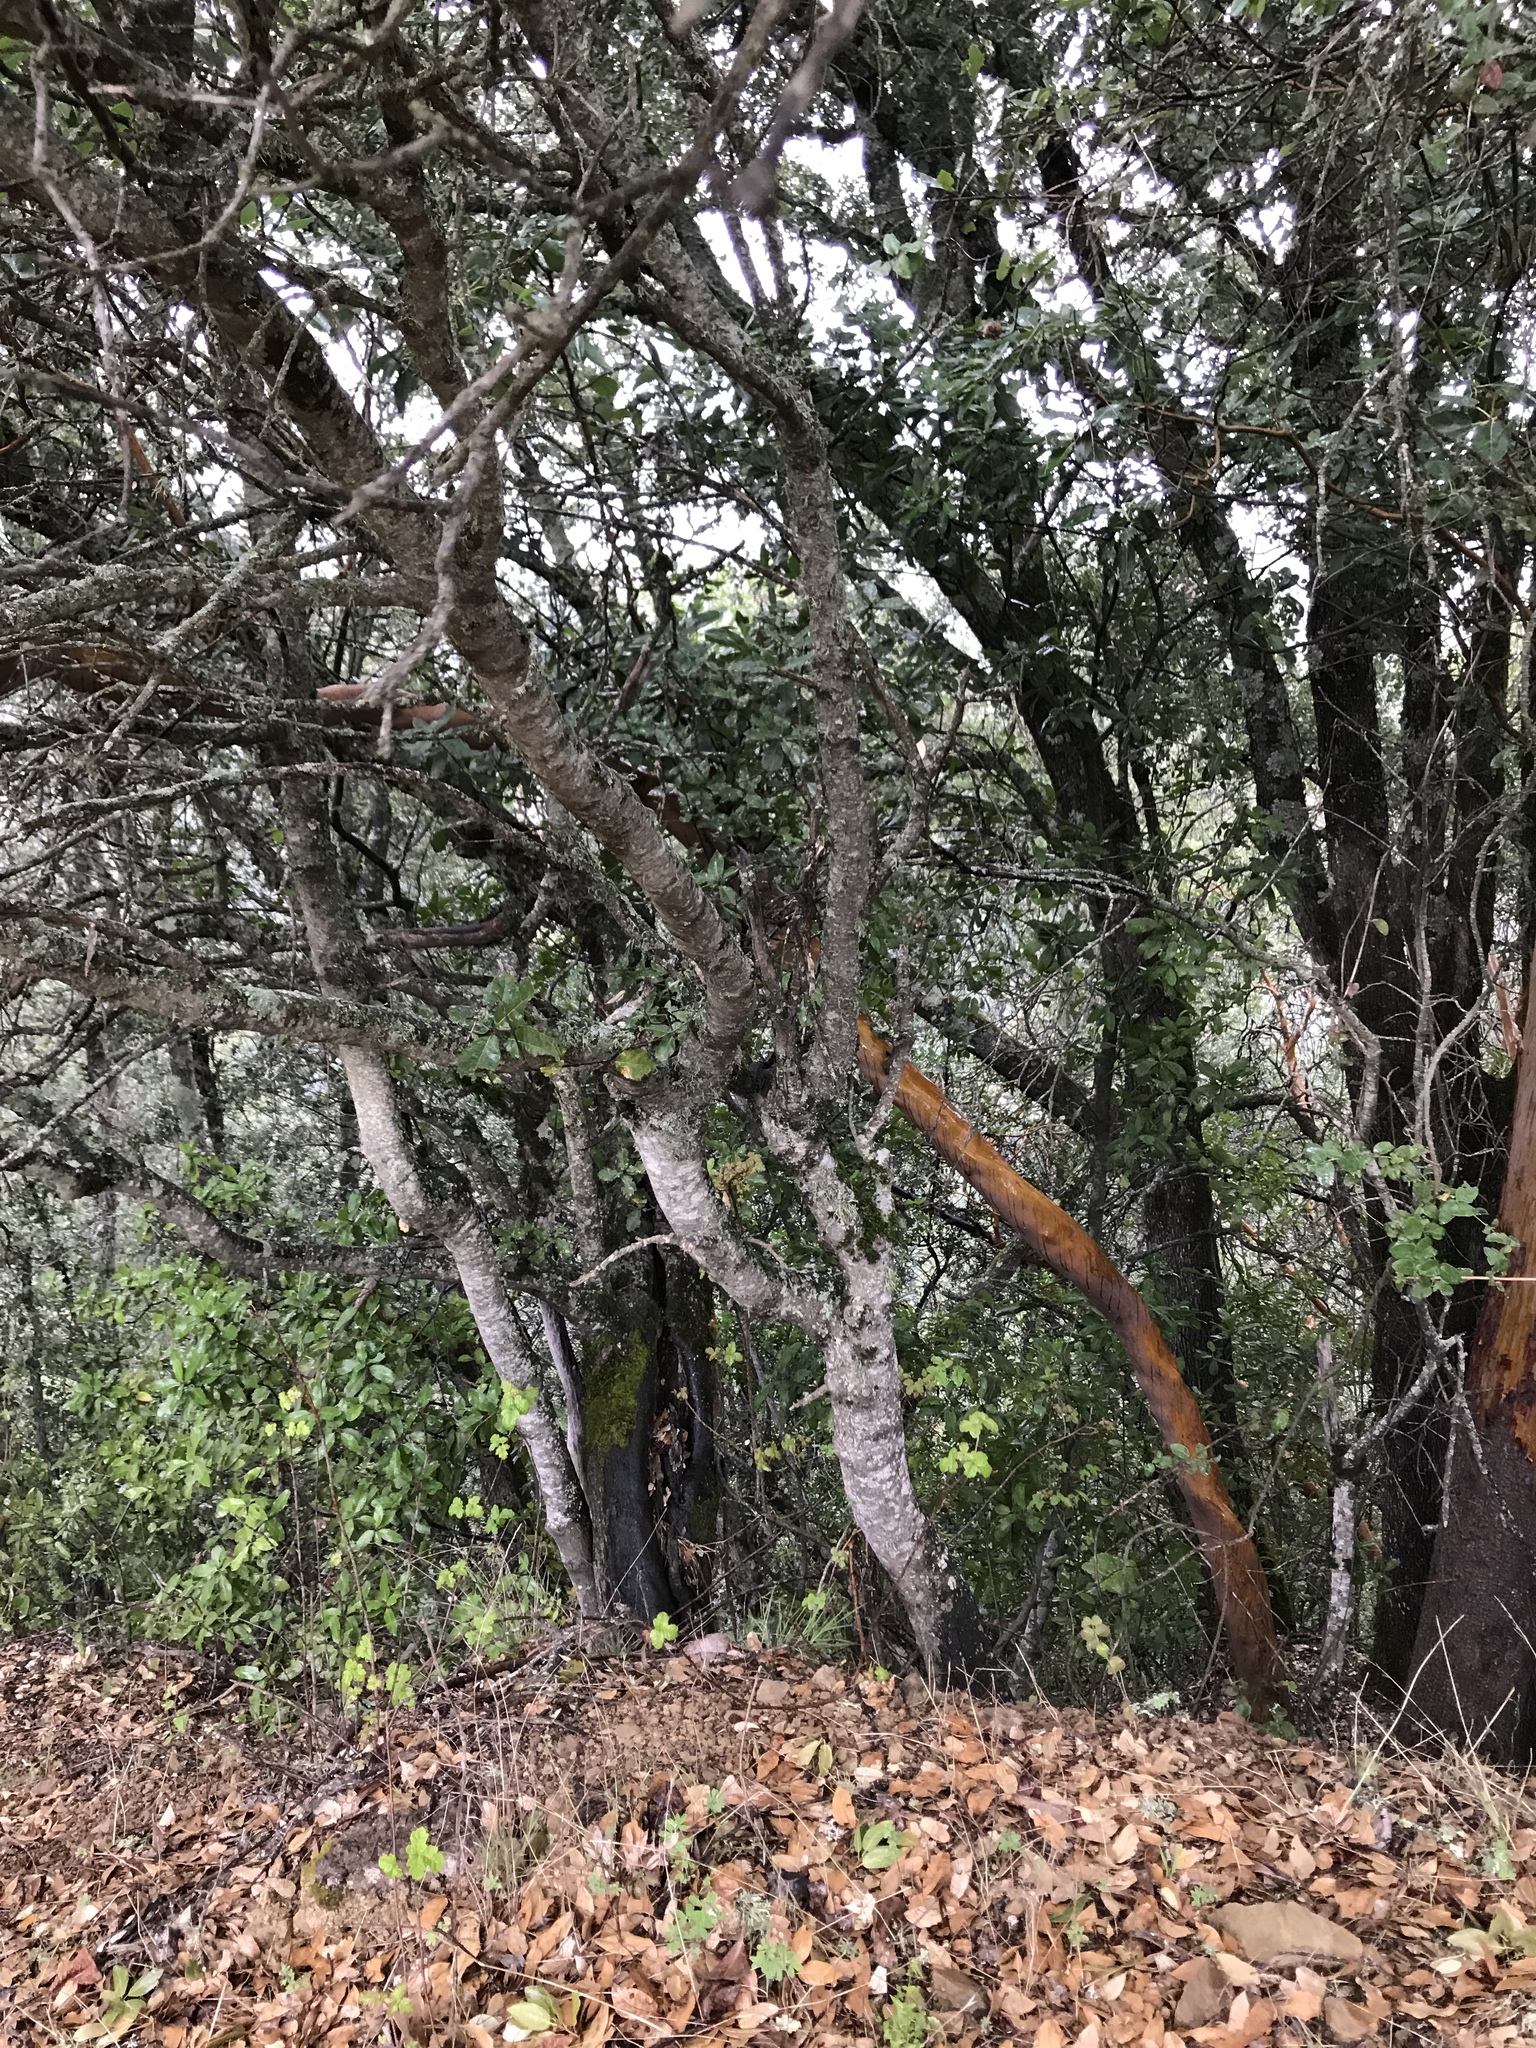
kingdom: Plantae
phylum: Tracheophyta
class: Magnoliopsida
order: Fagales
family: Fagaceae
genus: Quercus
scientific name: Quercus parvula
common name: Santa cruz island oak
